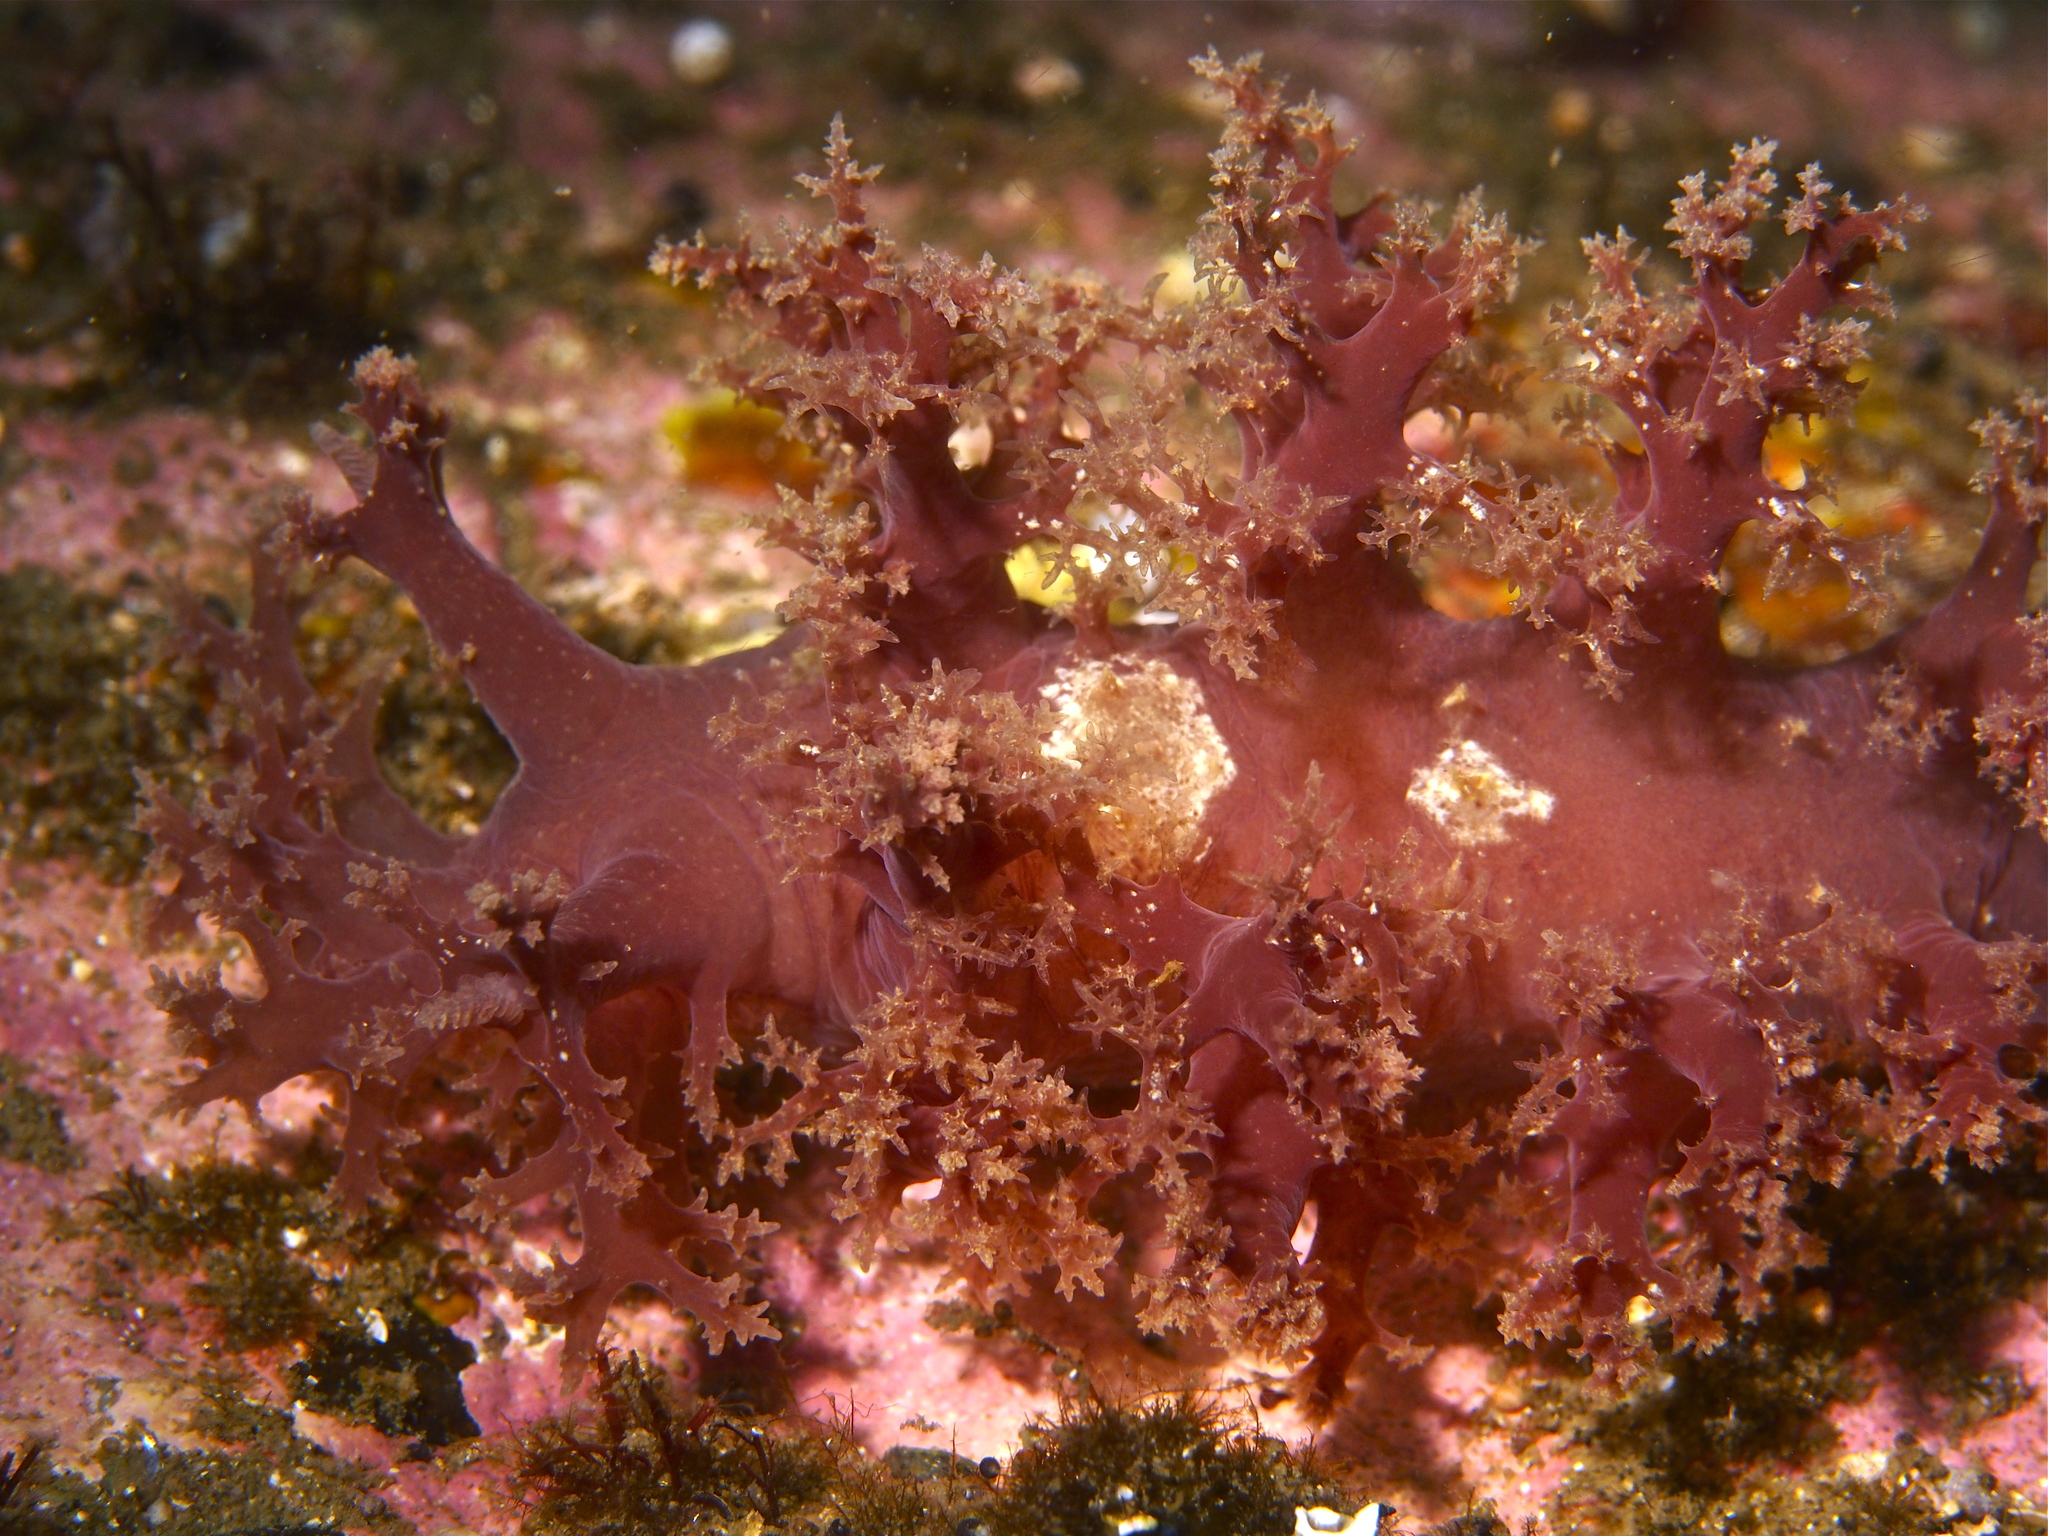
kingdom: Animalia
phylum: Mollusca
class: Gastropoda
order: Nudibranchia
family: Dendronotidae
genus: Dendronotus
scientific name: Dendronotus lacteus
